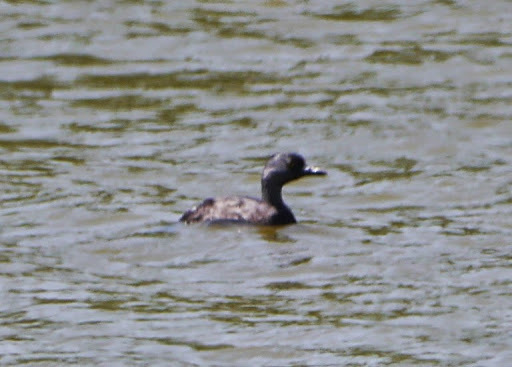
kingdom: Animalia
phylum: Chordata
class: Aves
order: Podicipediformes
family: Podicipedidae
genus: Tachybaptus
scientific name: Tachybaptus dominicus
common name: Least grebe
